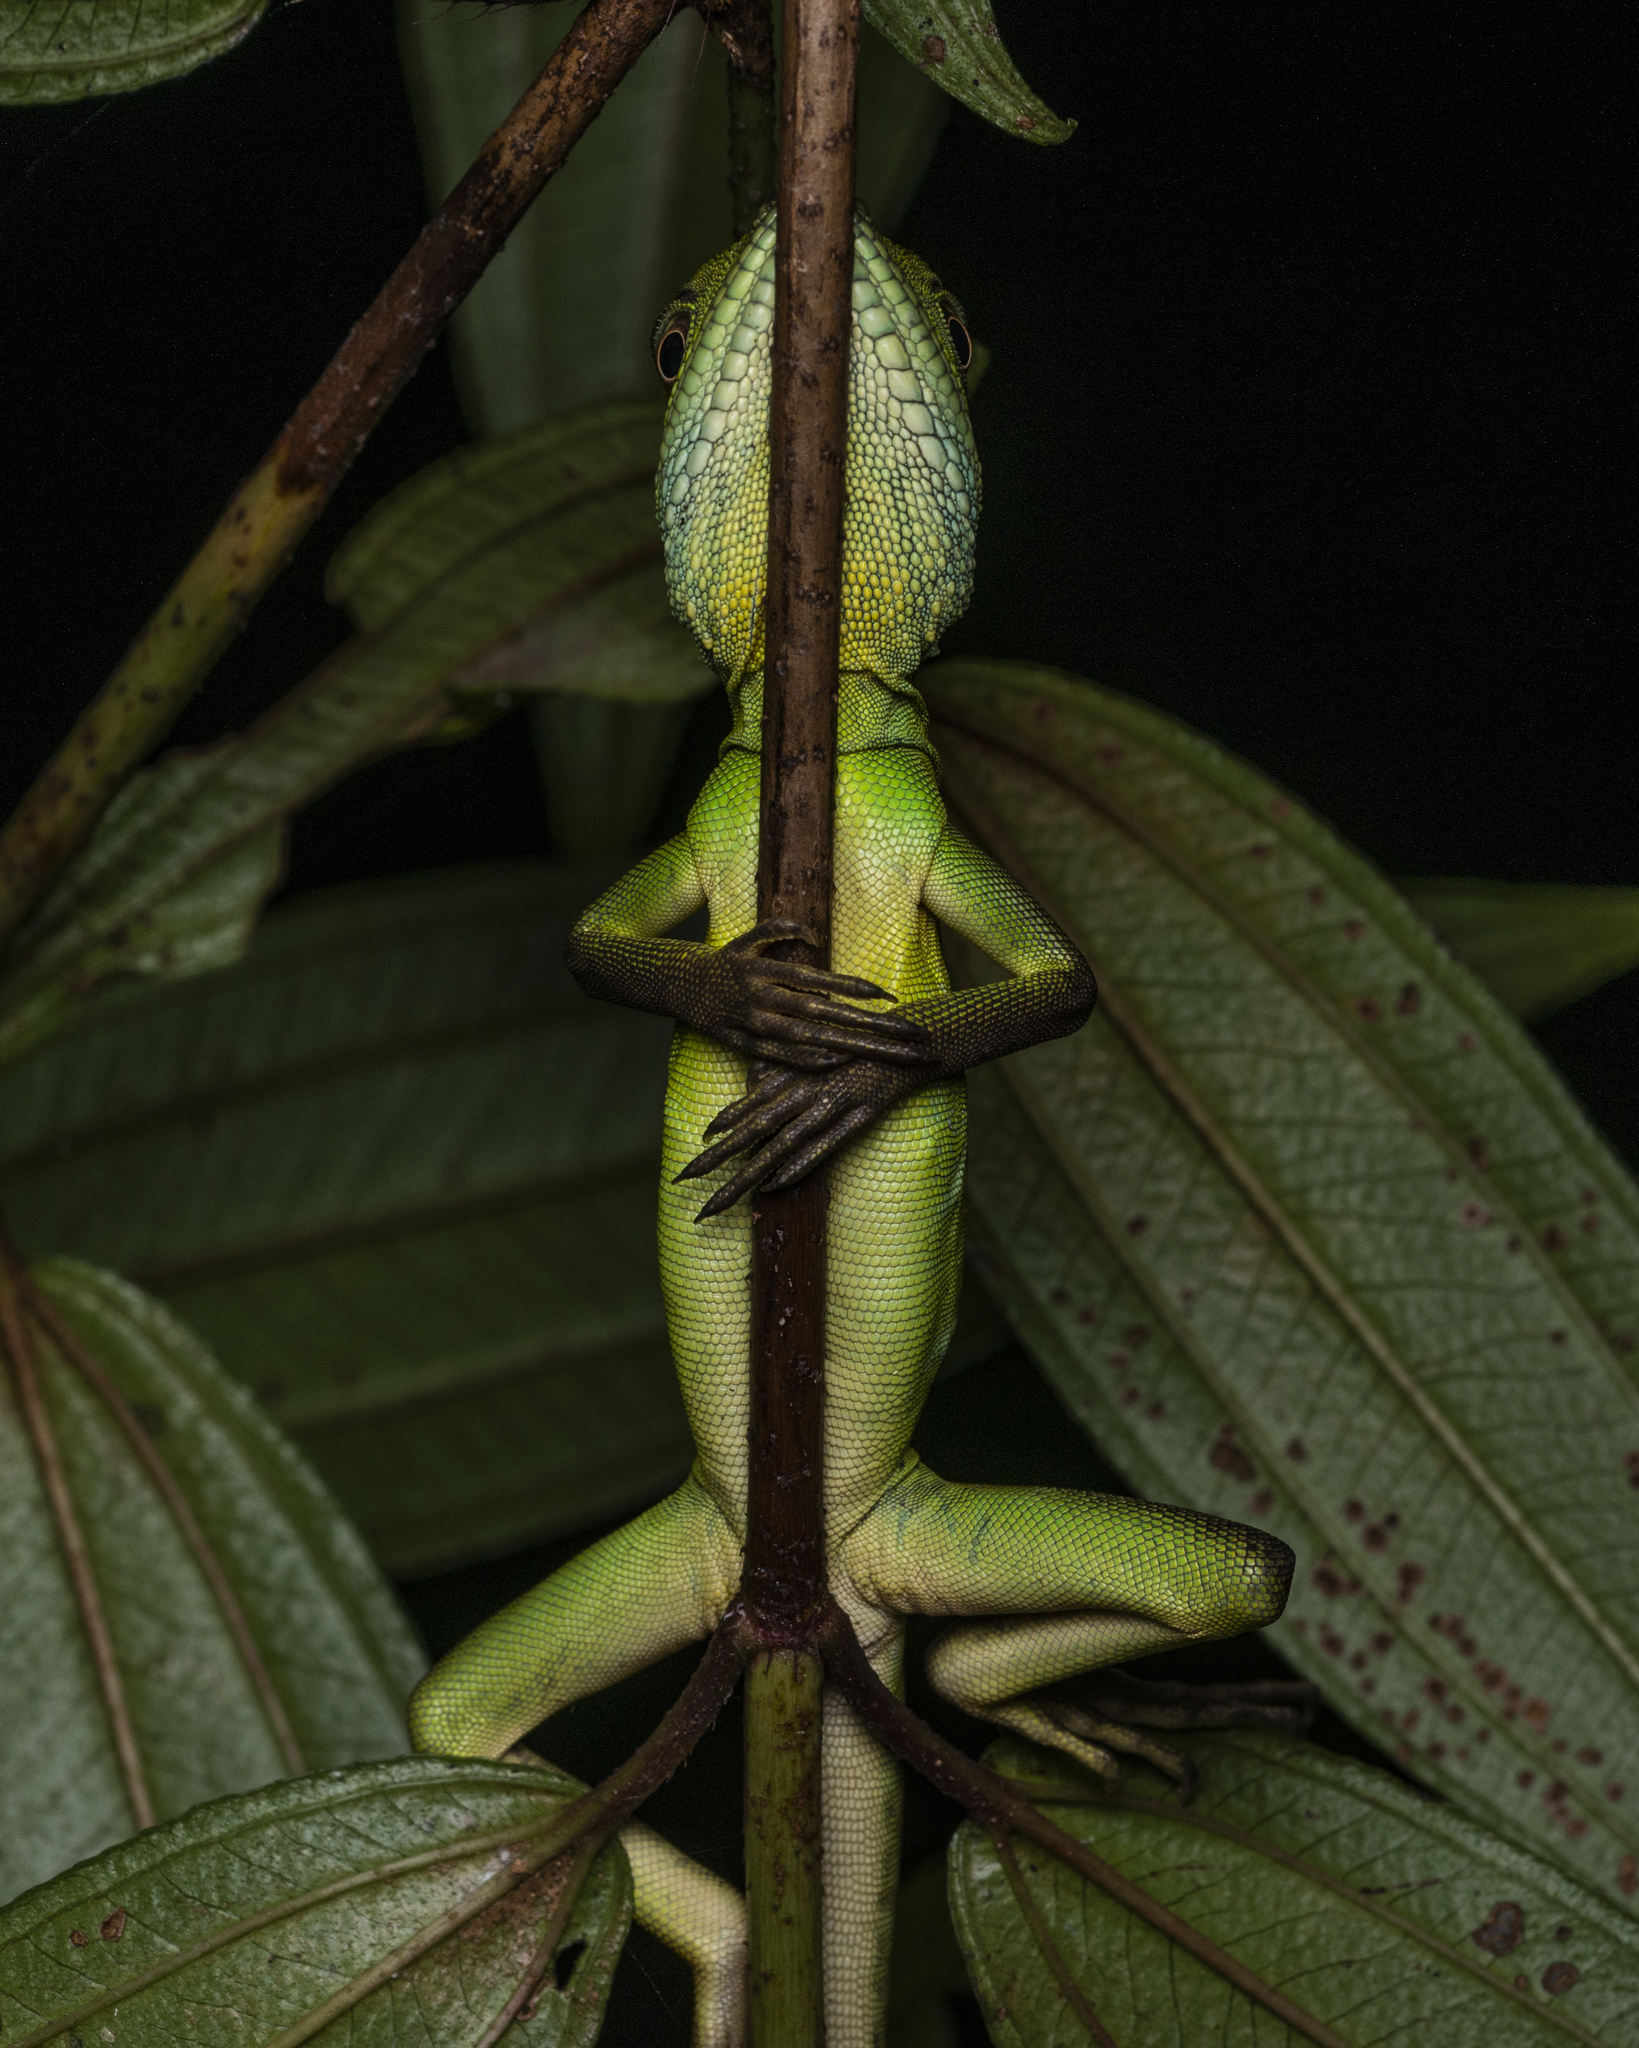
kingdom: Animalia
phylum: Chordata
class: Squamata
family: Agamidae
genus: Physignathus
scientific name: Physignathus cocincinus
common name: Asian water dragon
